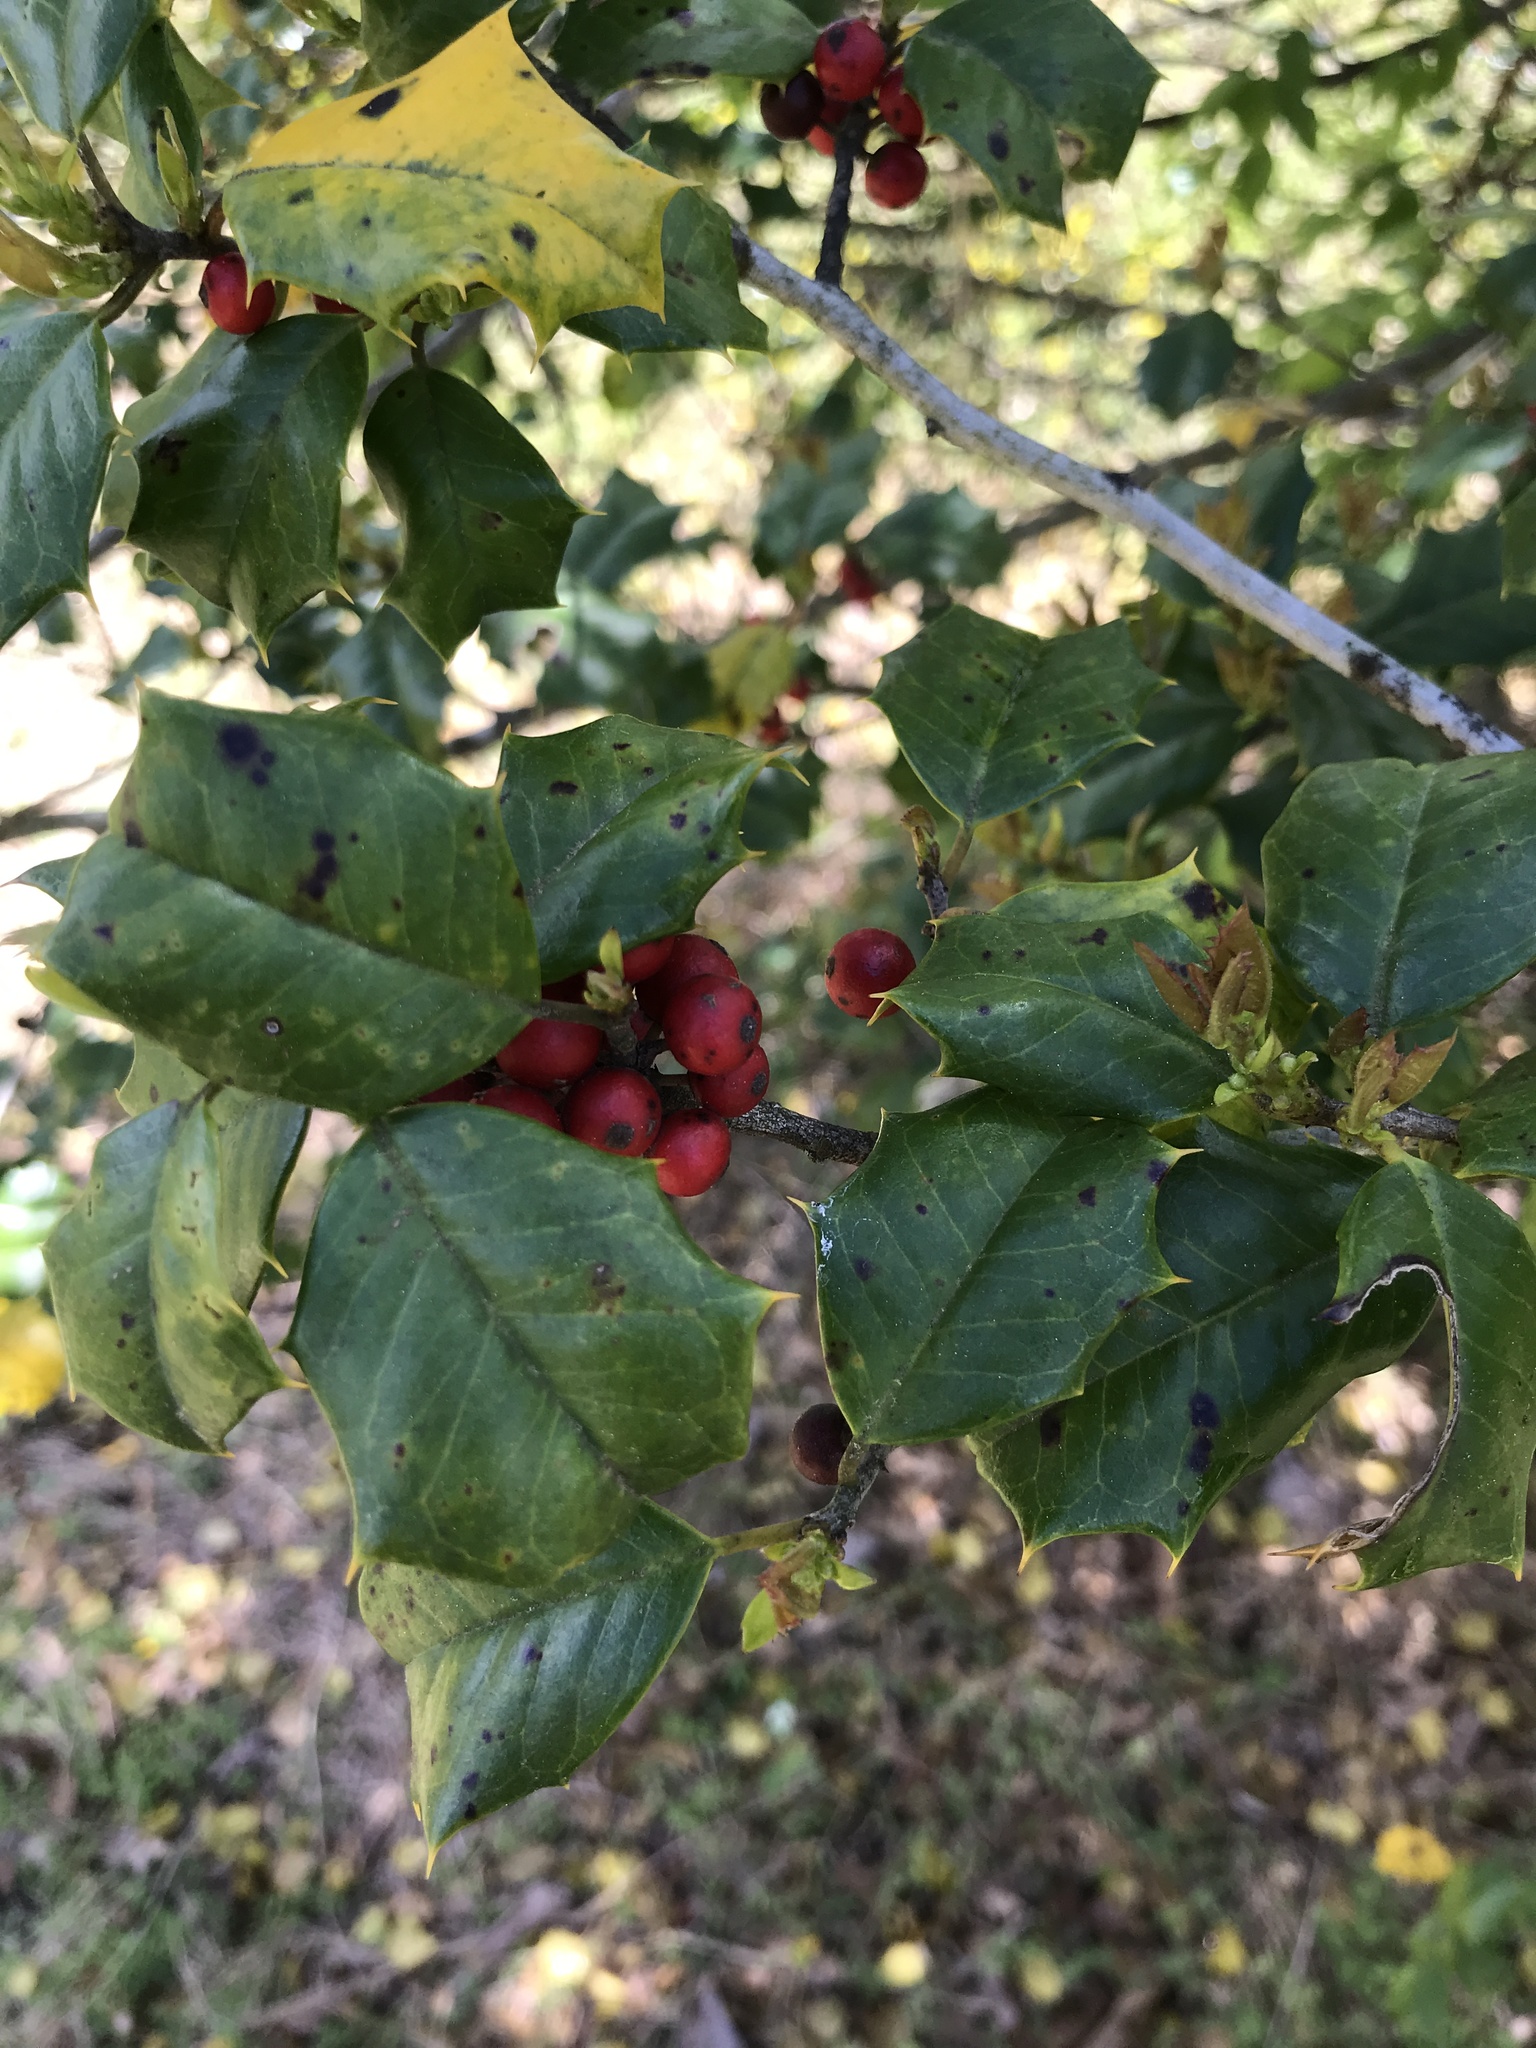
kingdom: Plantae
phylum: Tracheophyta
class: Magnoliopsida
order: Aquifoliales
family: Aquifoliaceae
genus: Ilex
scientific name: Ilex opaca
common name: American holly
